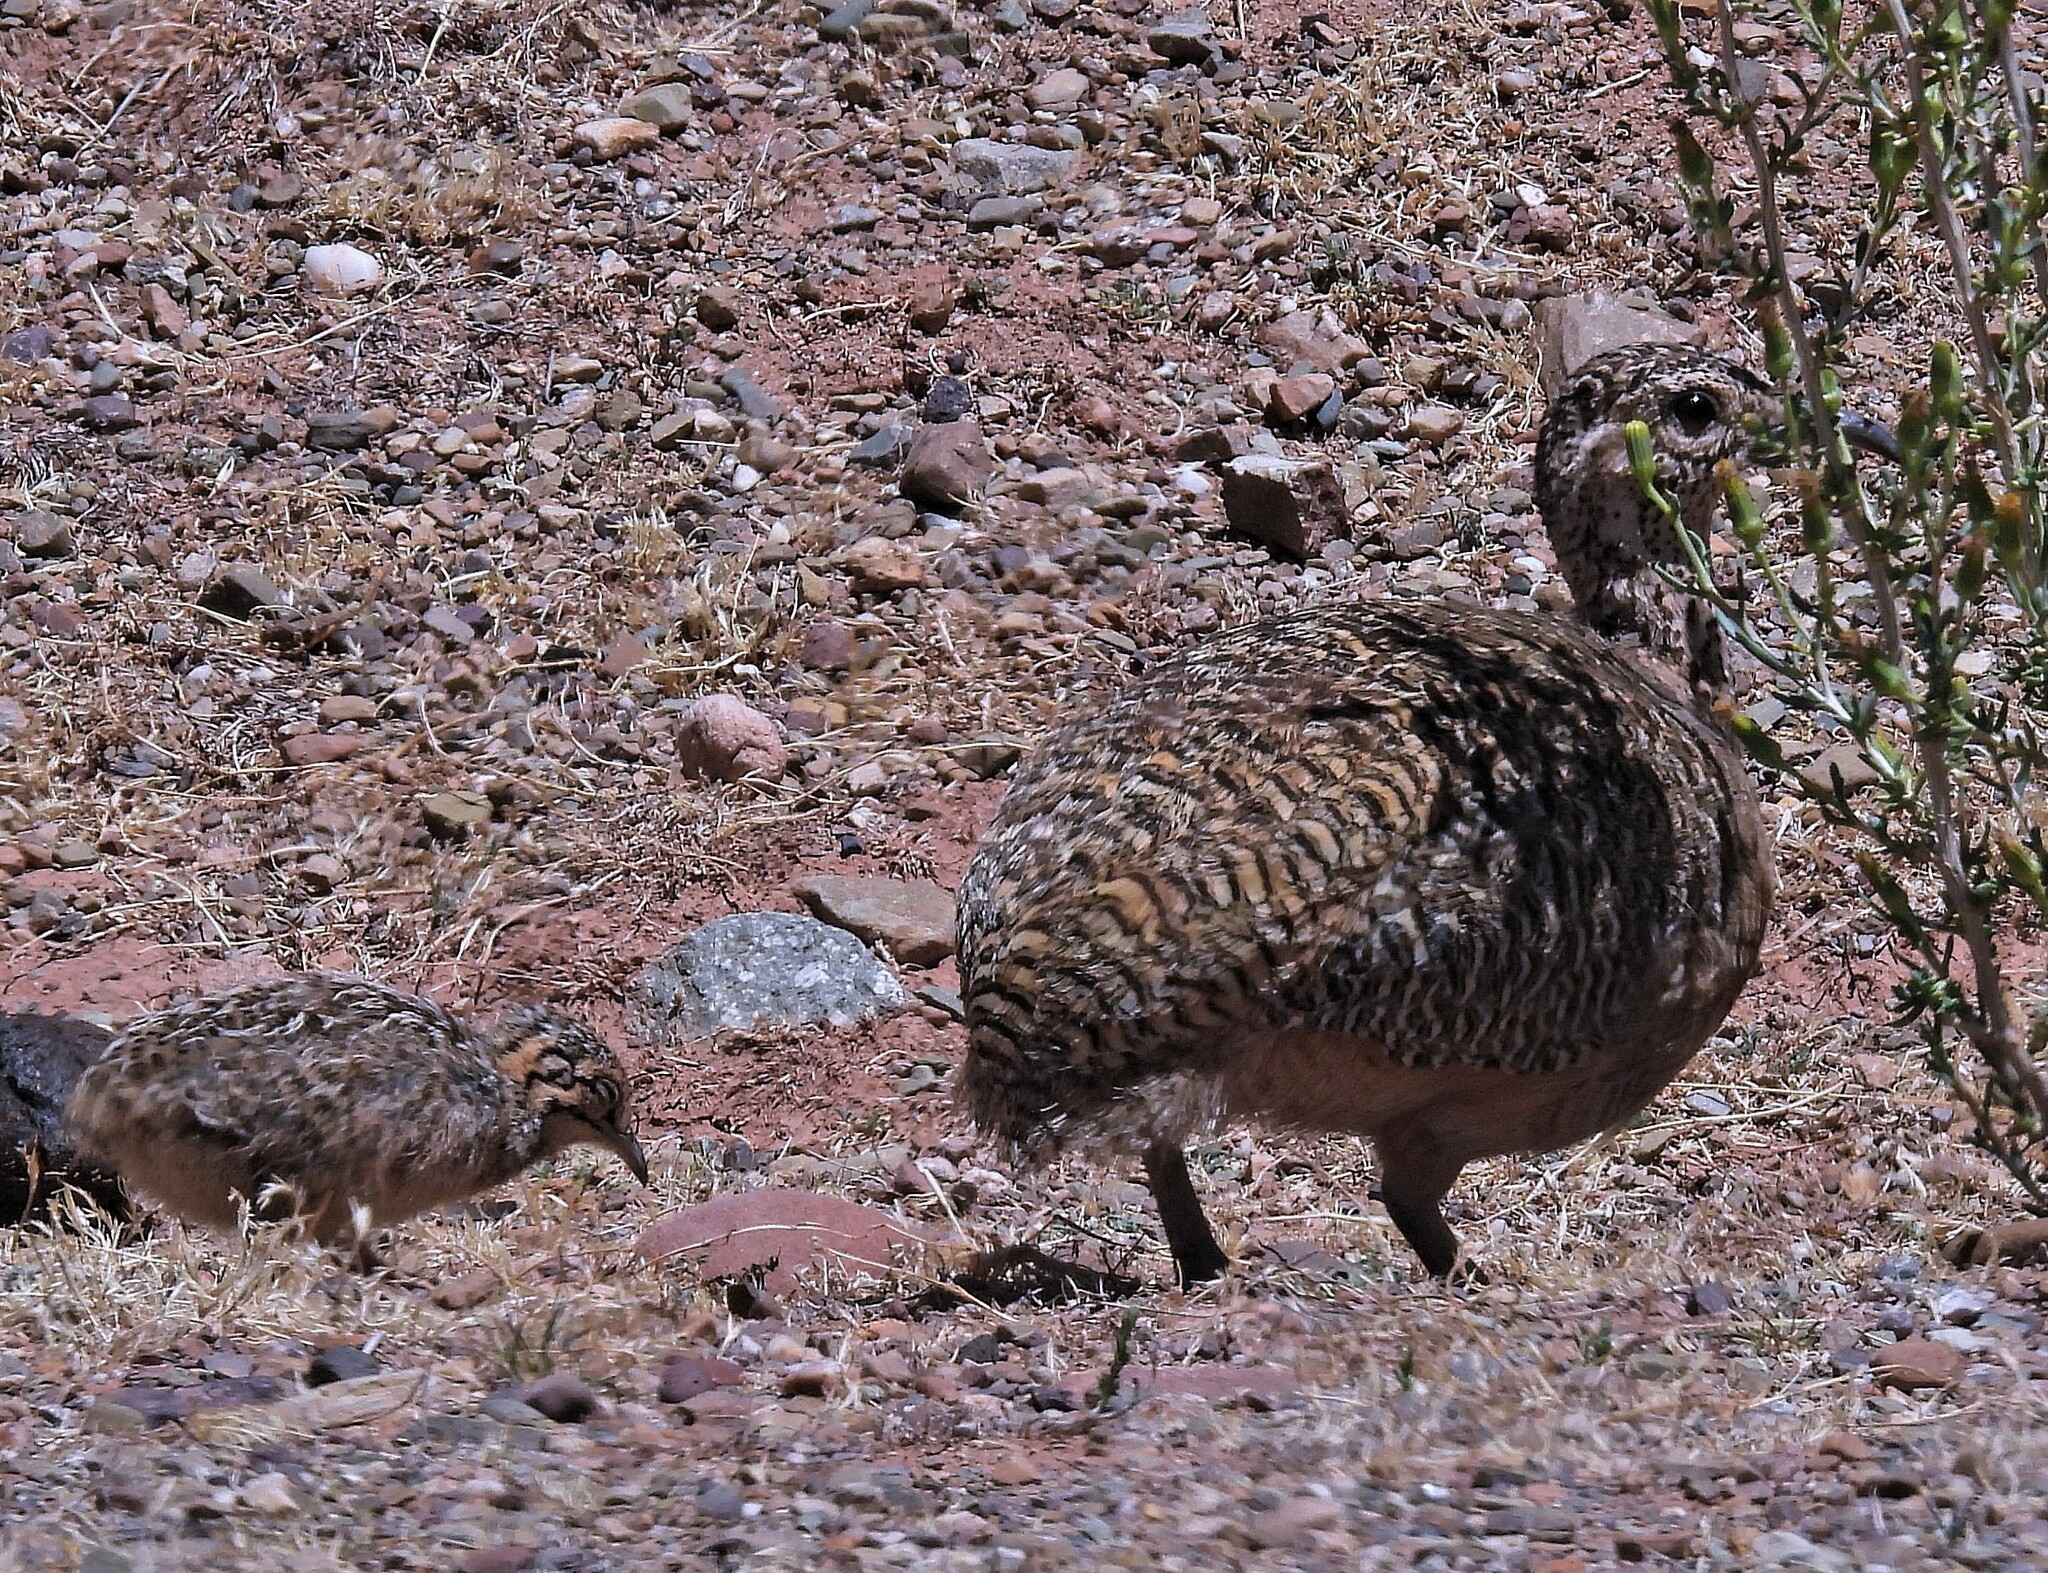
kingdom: Animalia
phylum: Chordata
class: Aves
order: Tinamiformes
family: Tinamidae
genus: Nothoprocta
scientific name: Nothoprocta ornata
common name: Ornate tinamou
